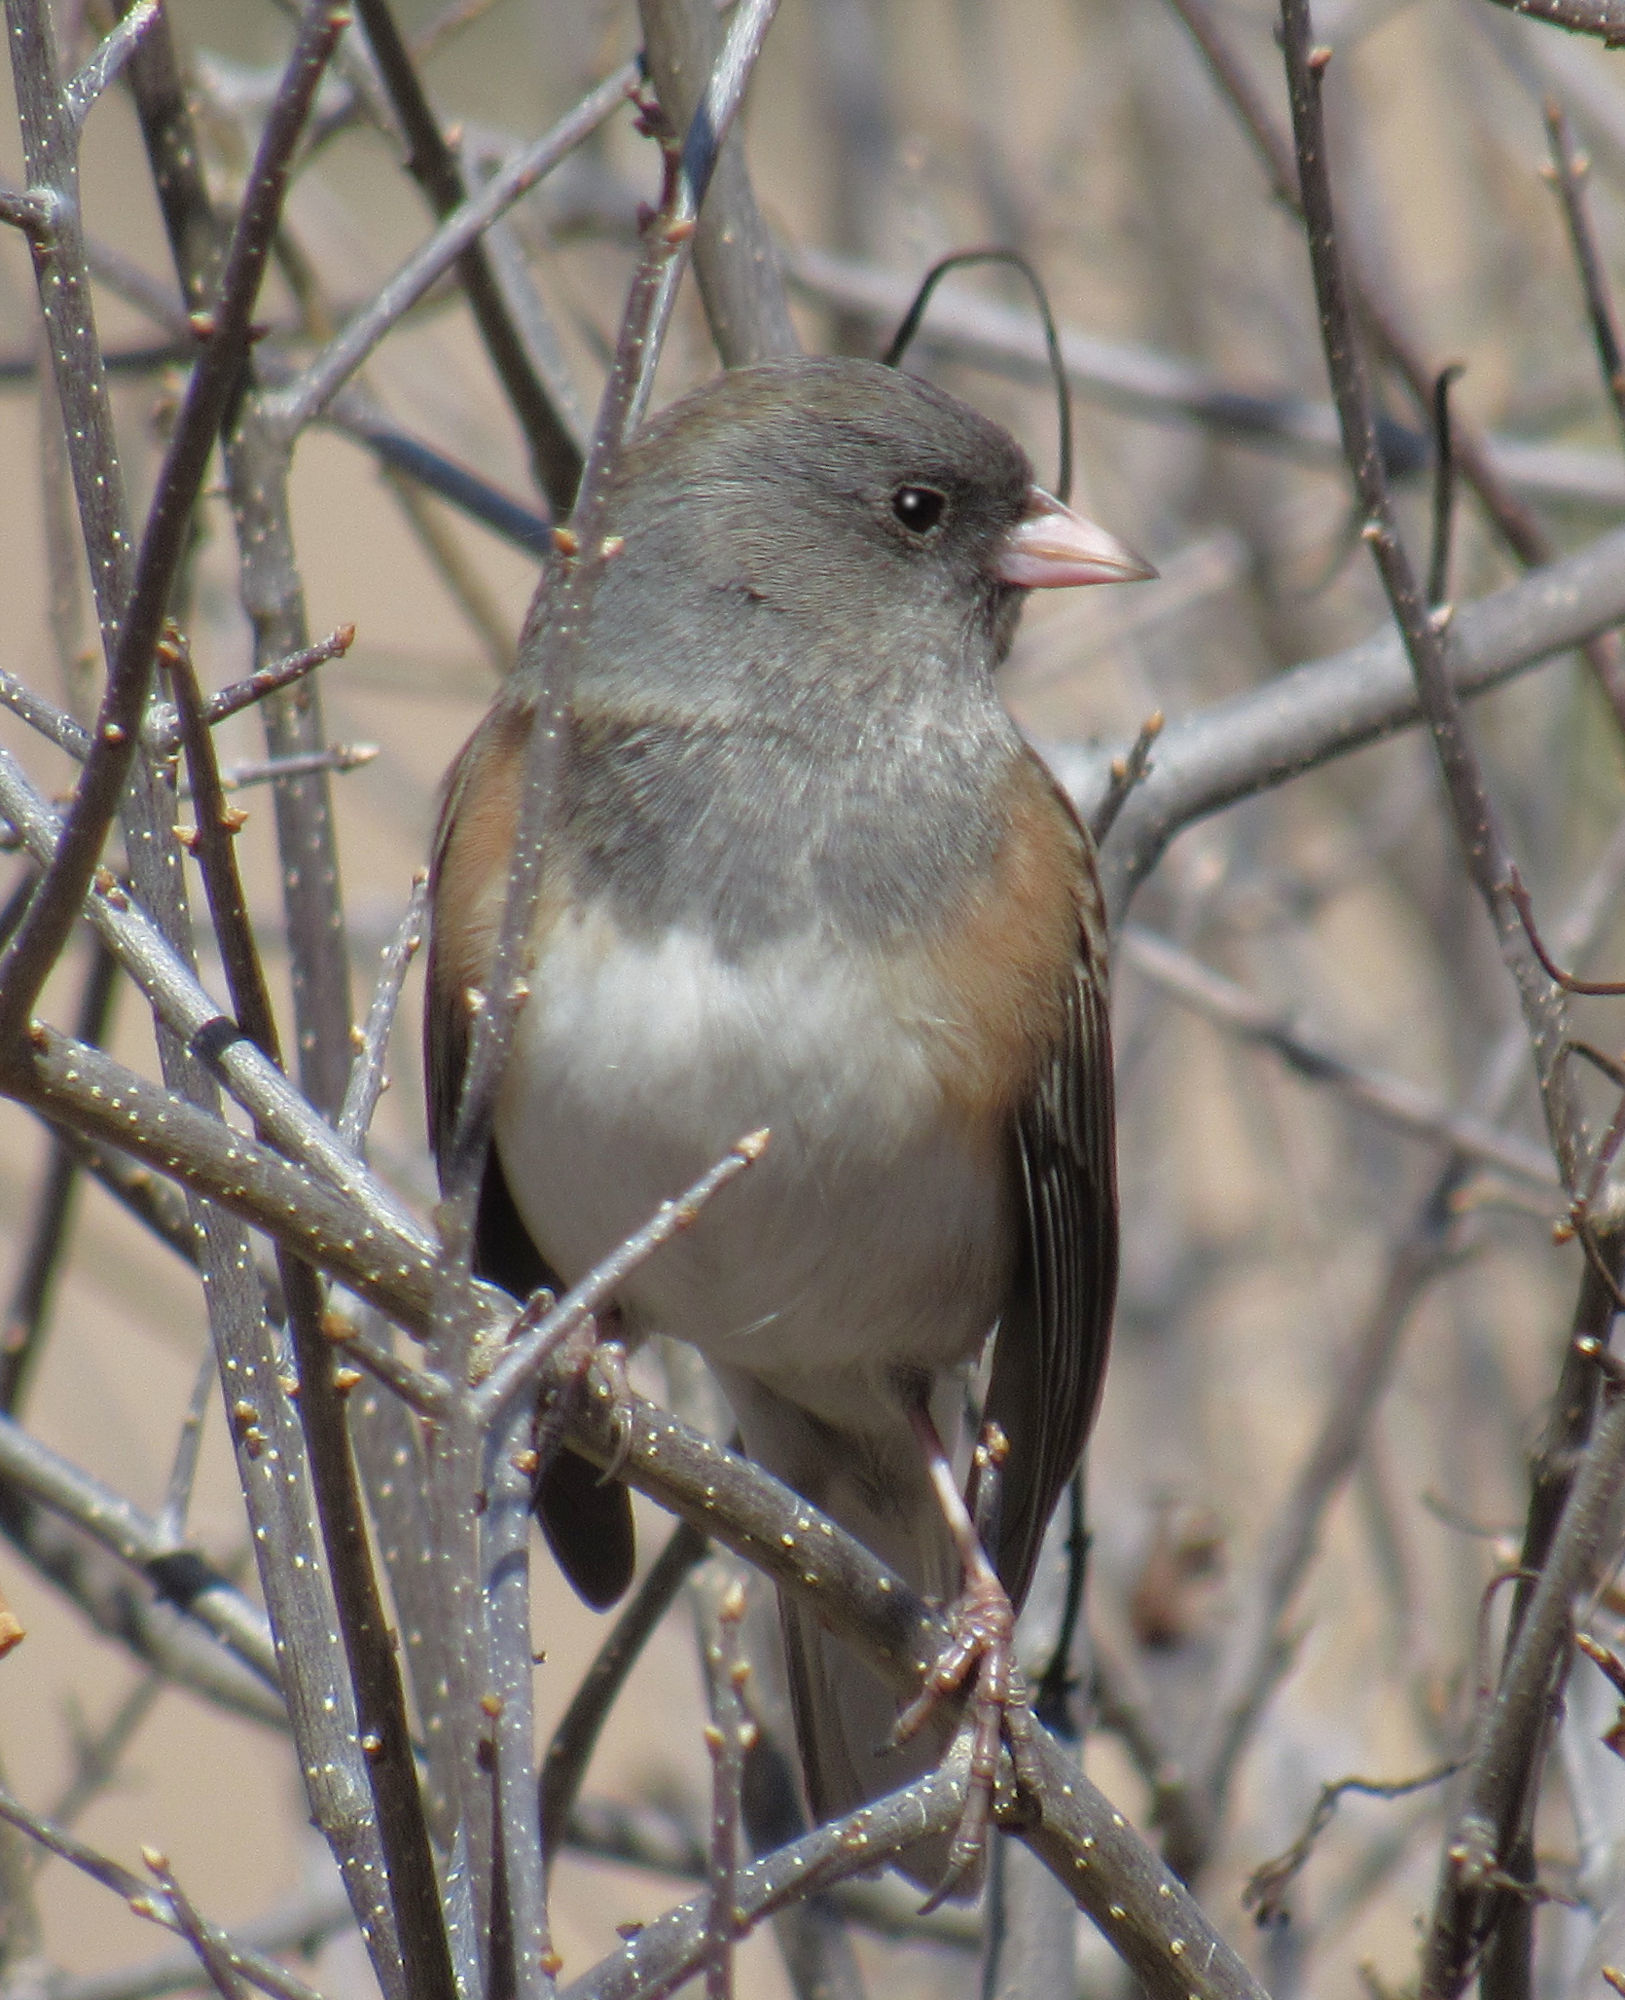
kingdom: Animalia
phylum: Chordata
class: Aves
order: Passeriformes
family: Passerellidae
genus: Junco
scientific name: Junco hyemalis
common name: Dark-eyed junco
